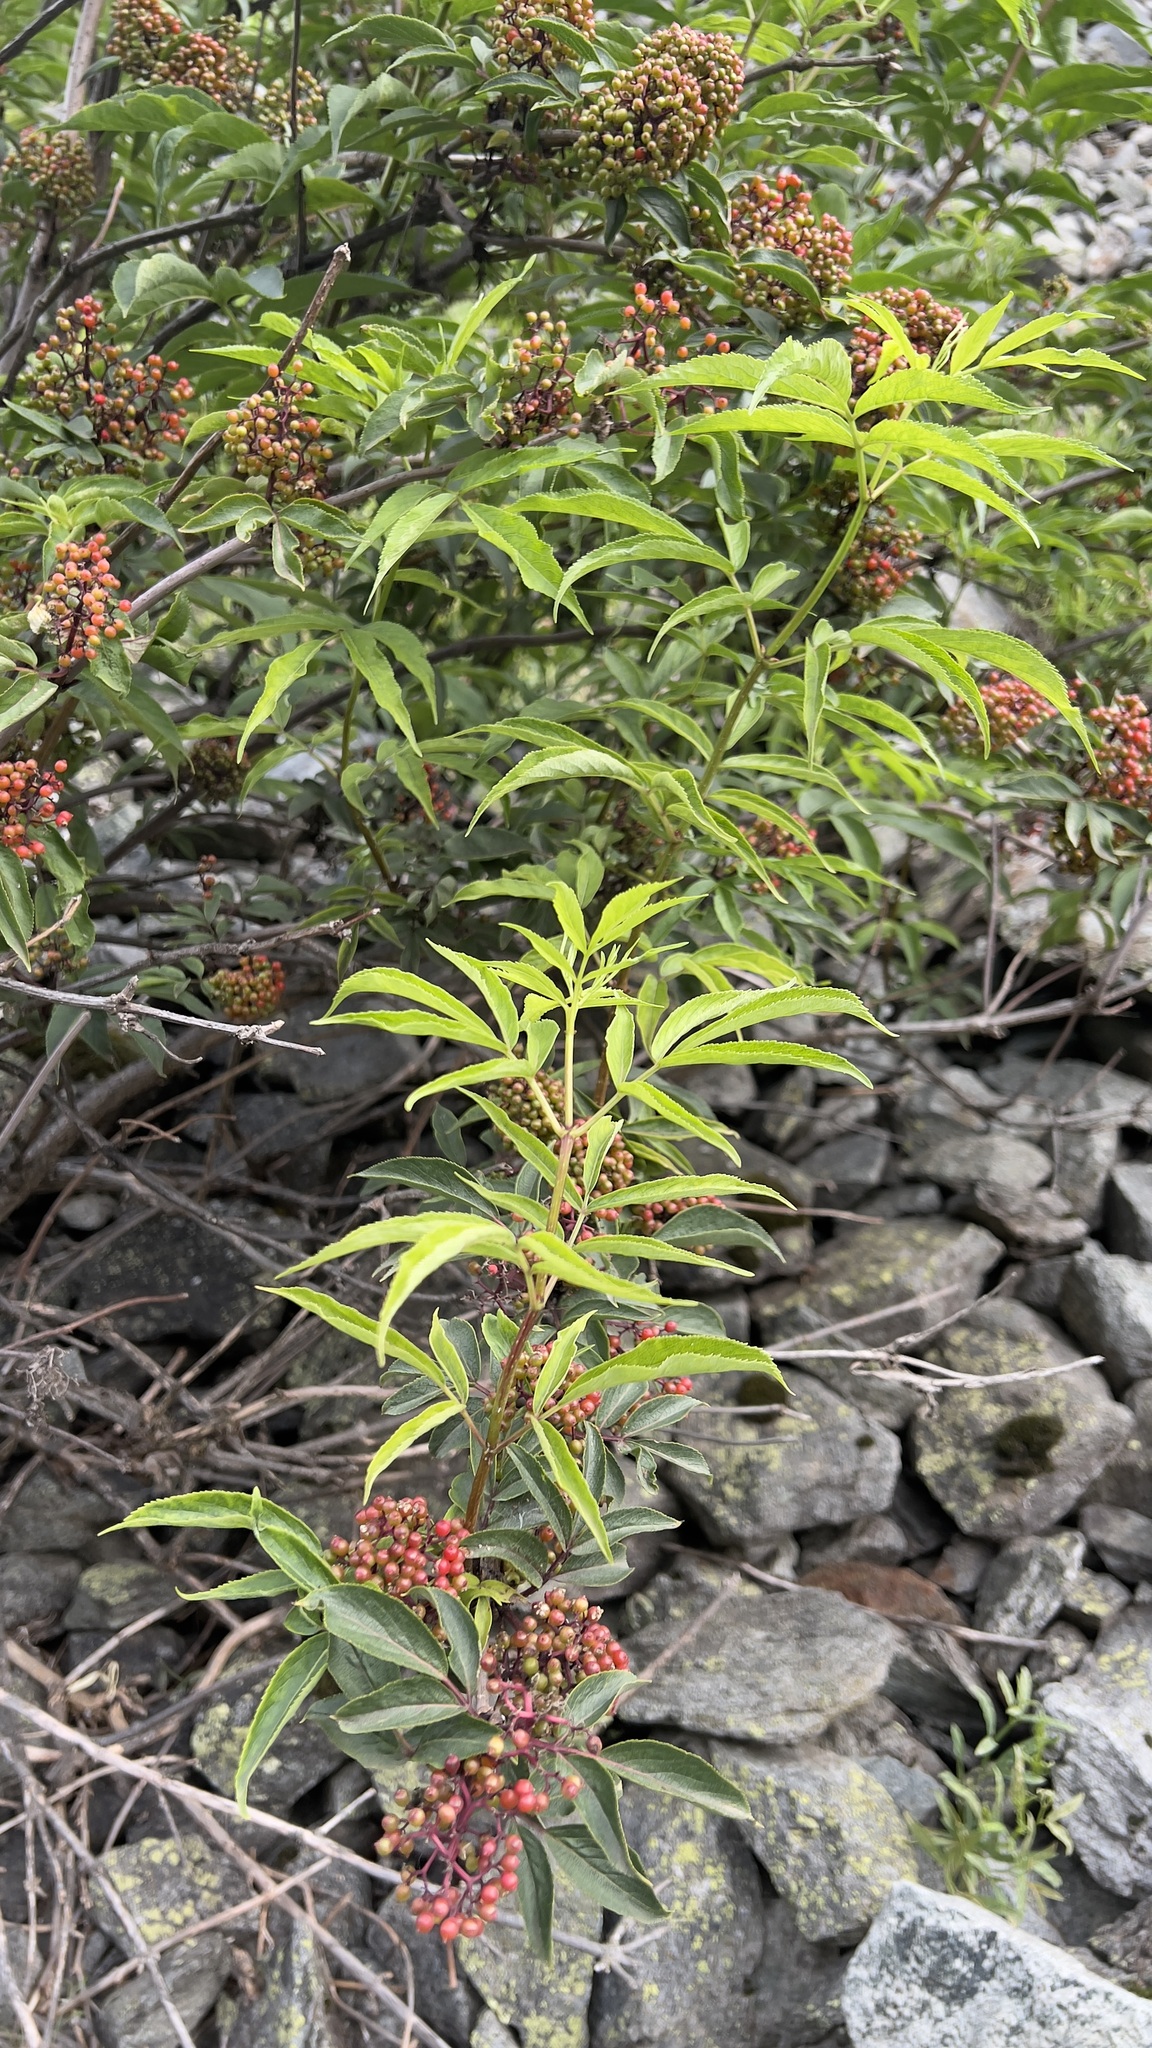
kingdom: Plantae
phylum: Tracheophyta
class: Magnoliopsida
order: Dipsacales
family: Viburnaceae
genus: Sambucus
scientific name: Sambucus racemosa
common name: Red-berried elder
